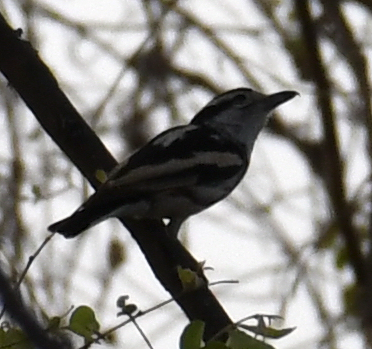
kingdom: Animalia
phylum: Chordata
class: Aves
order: Passeriformes
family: Malaconotidae
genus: Nilaus
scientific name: Nilaus afer
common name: Brubru
